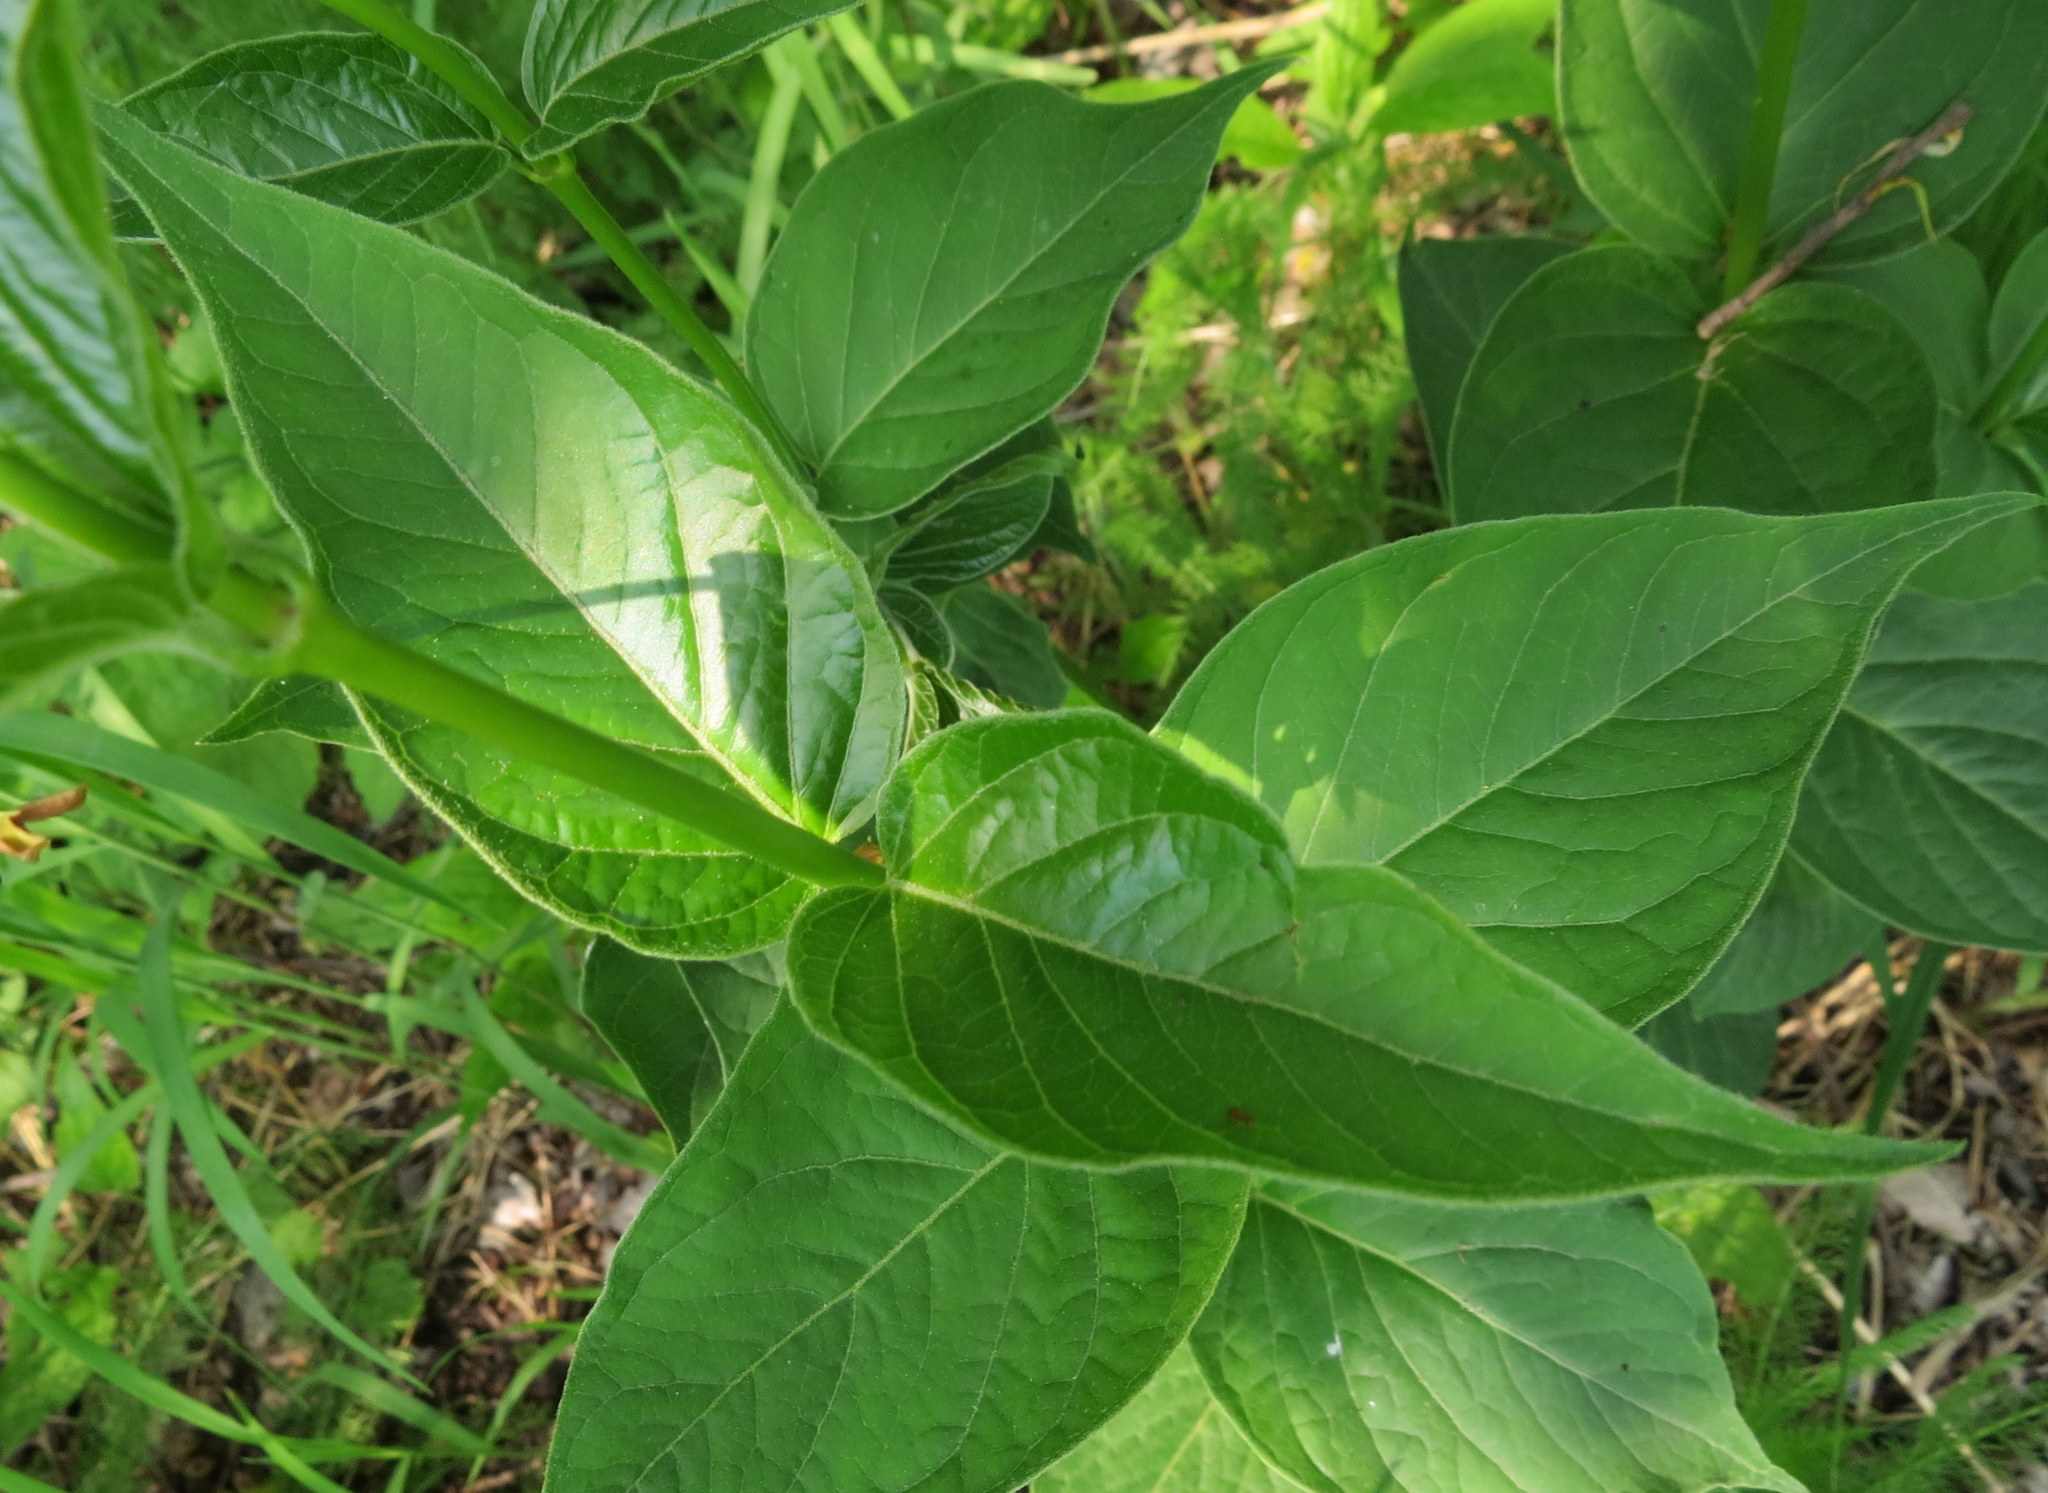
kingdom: Plantae
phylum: Tracheophyta
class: Magnoliopsida
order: Gentianales
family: Apocynaceae
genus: Vincetoxicum
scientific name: Vincetoxicum rossicum
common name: Dog-strangling vine
